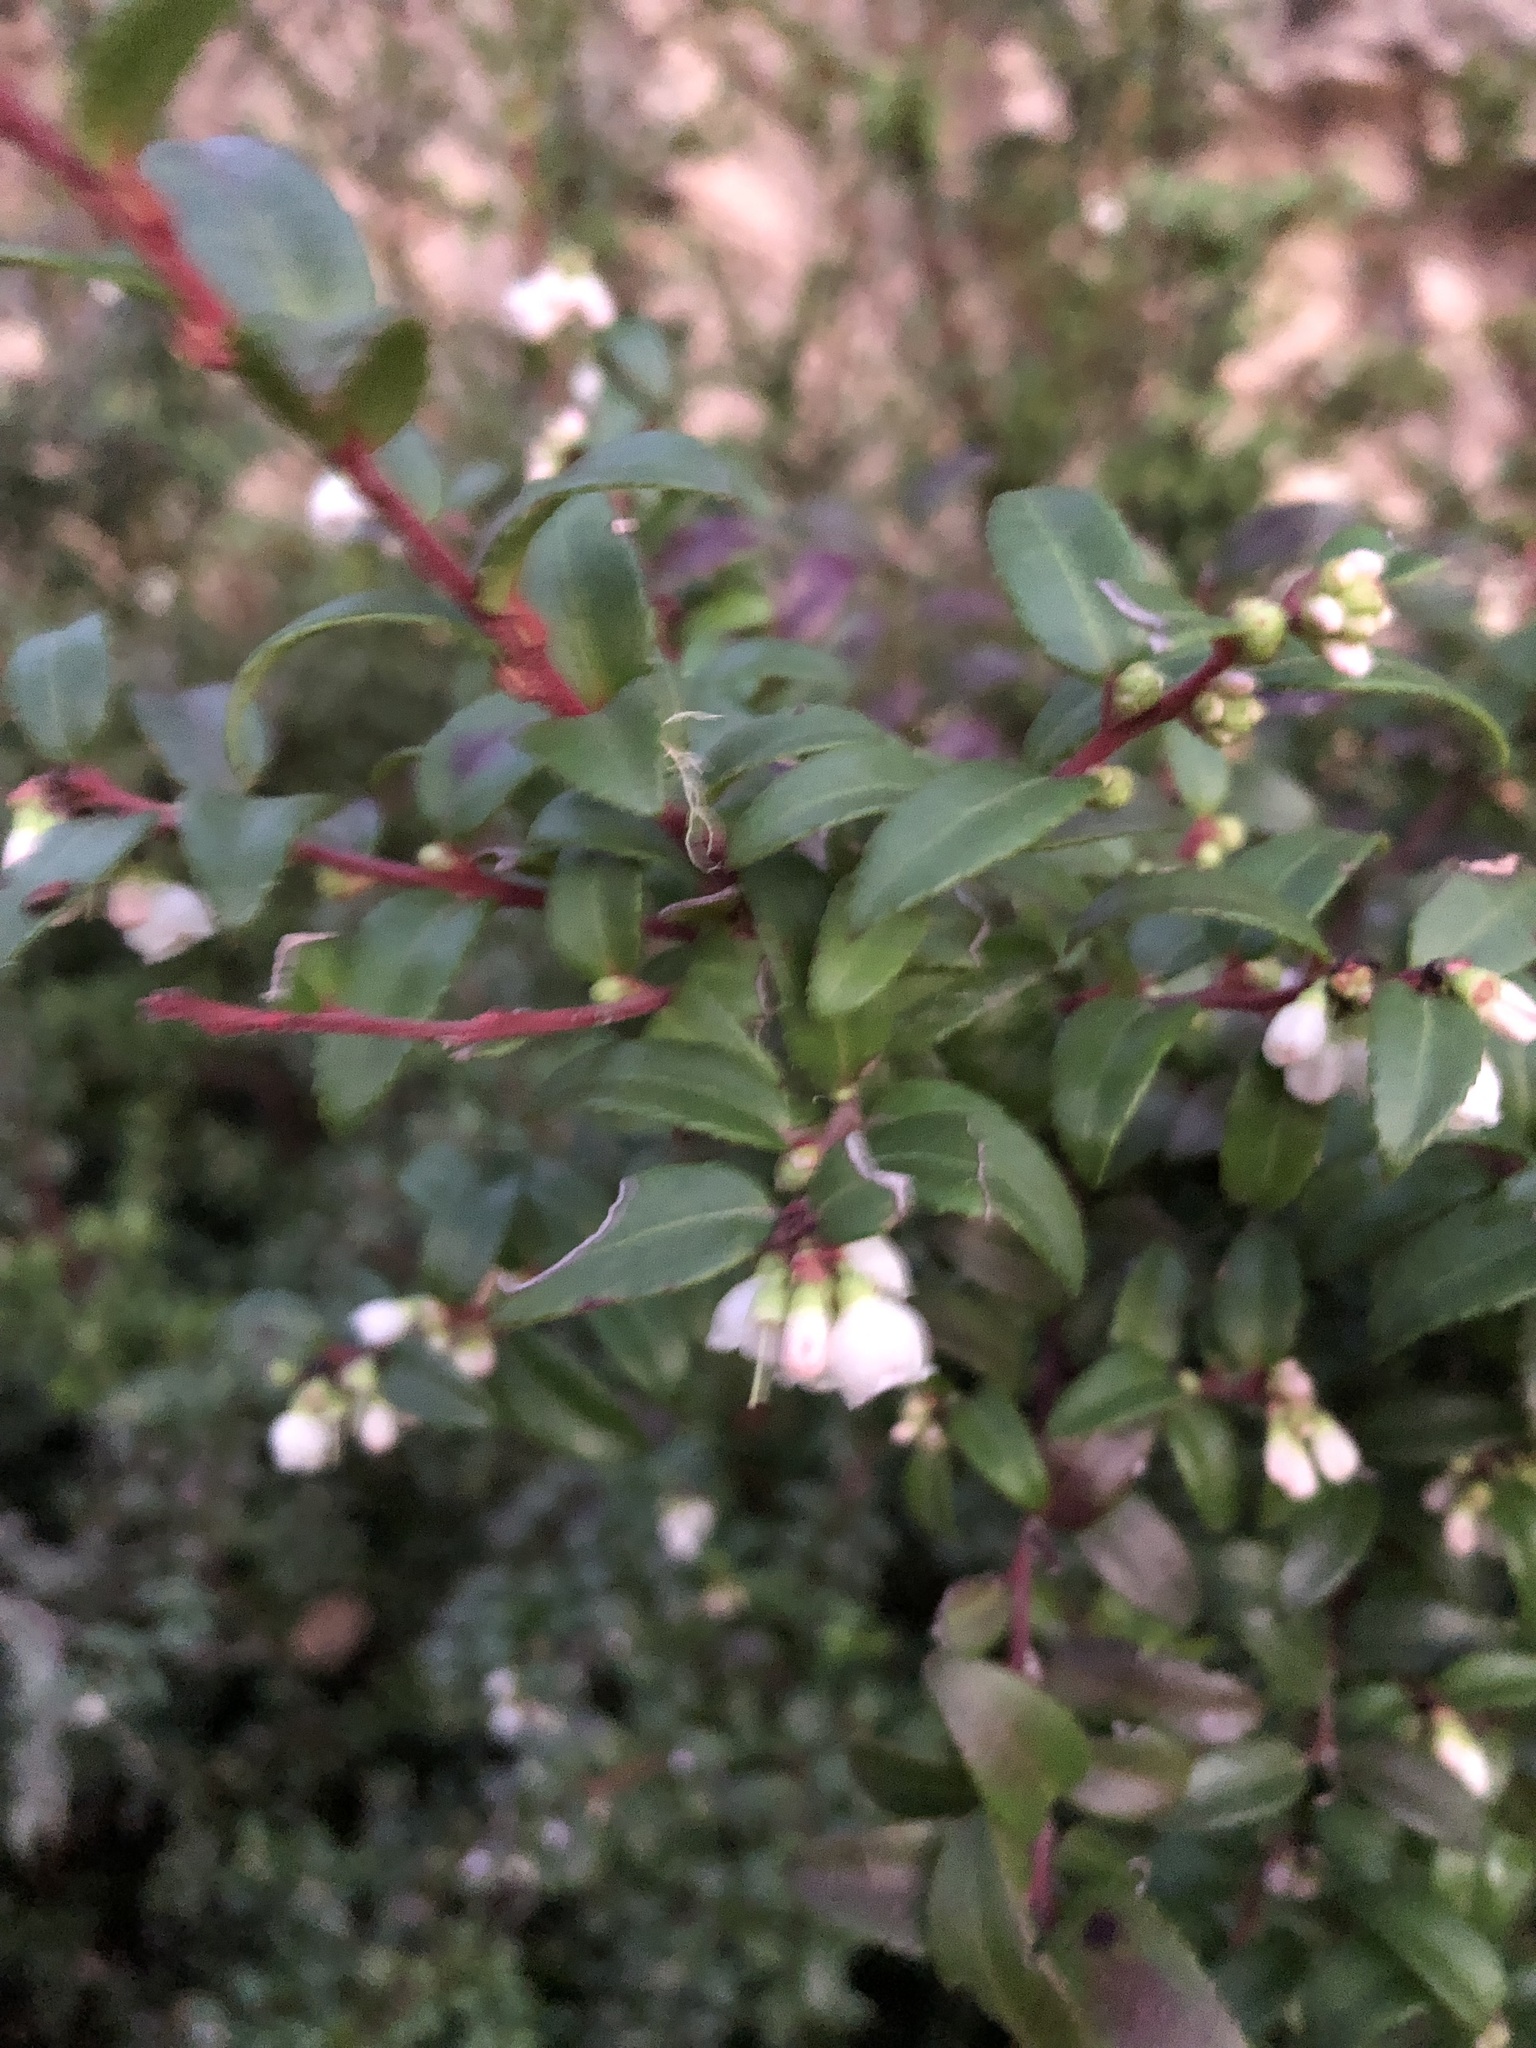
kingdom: Plantae
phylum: Tracheophyta
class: Magnoliopsida
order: Ericales
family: Ericaceae
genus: Vaccinium
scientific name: Vaccinium ovatum
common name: California-huckleberry
